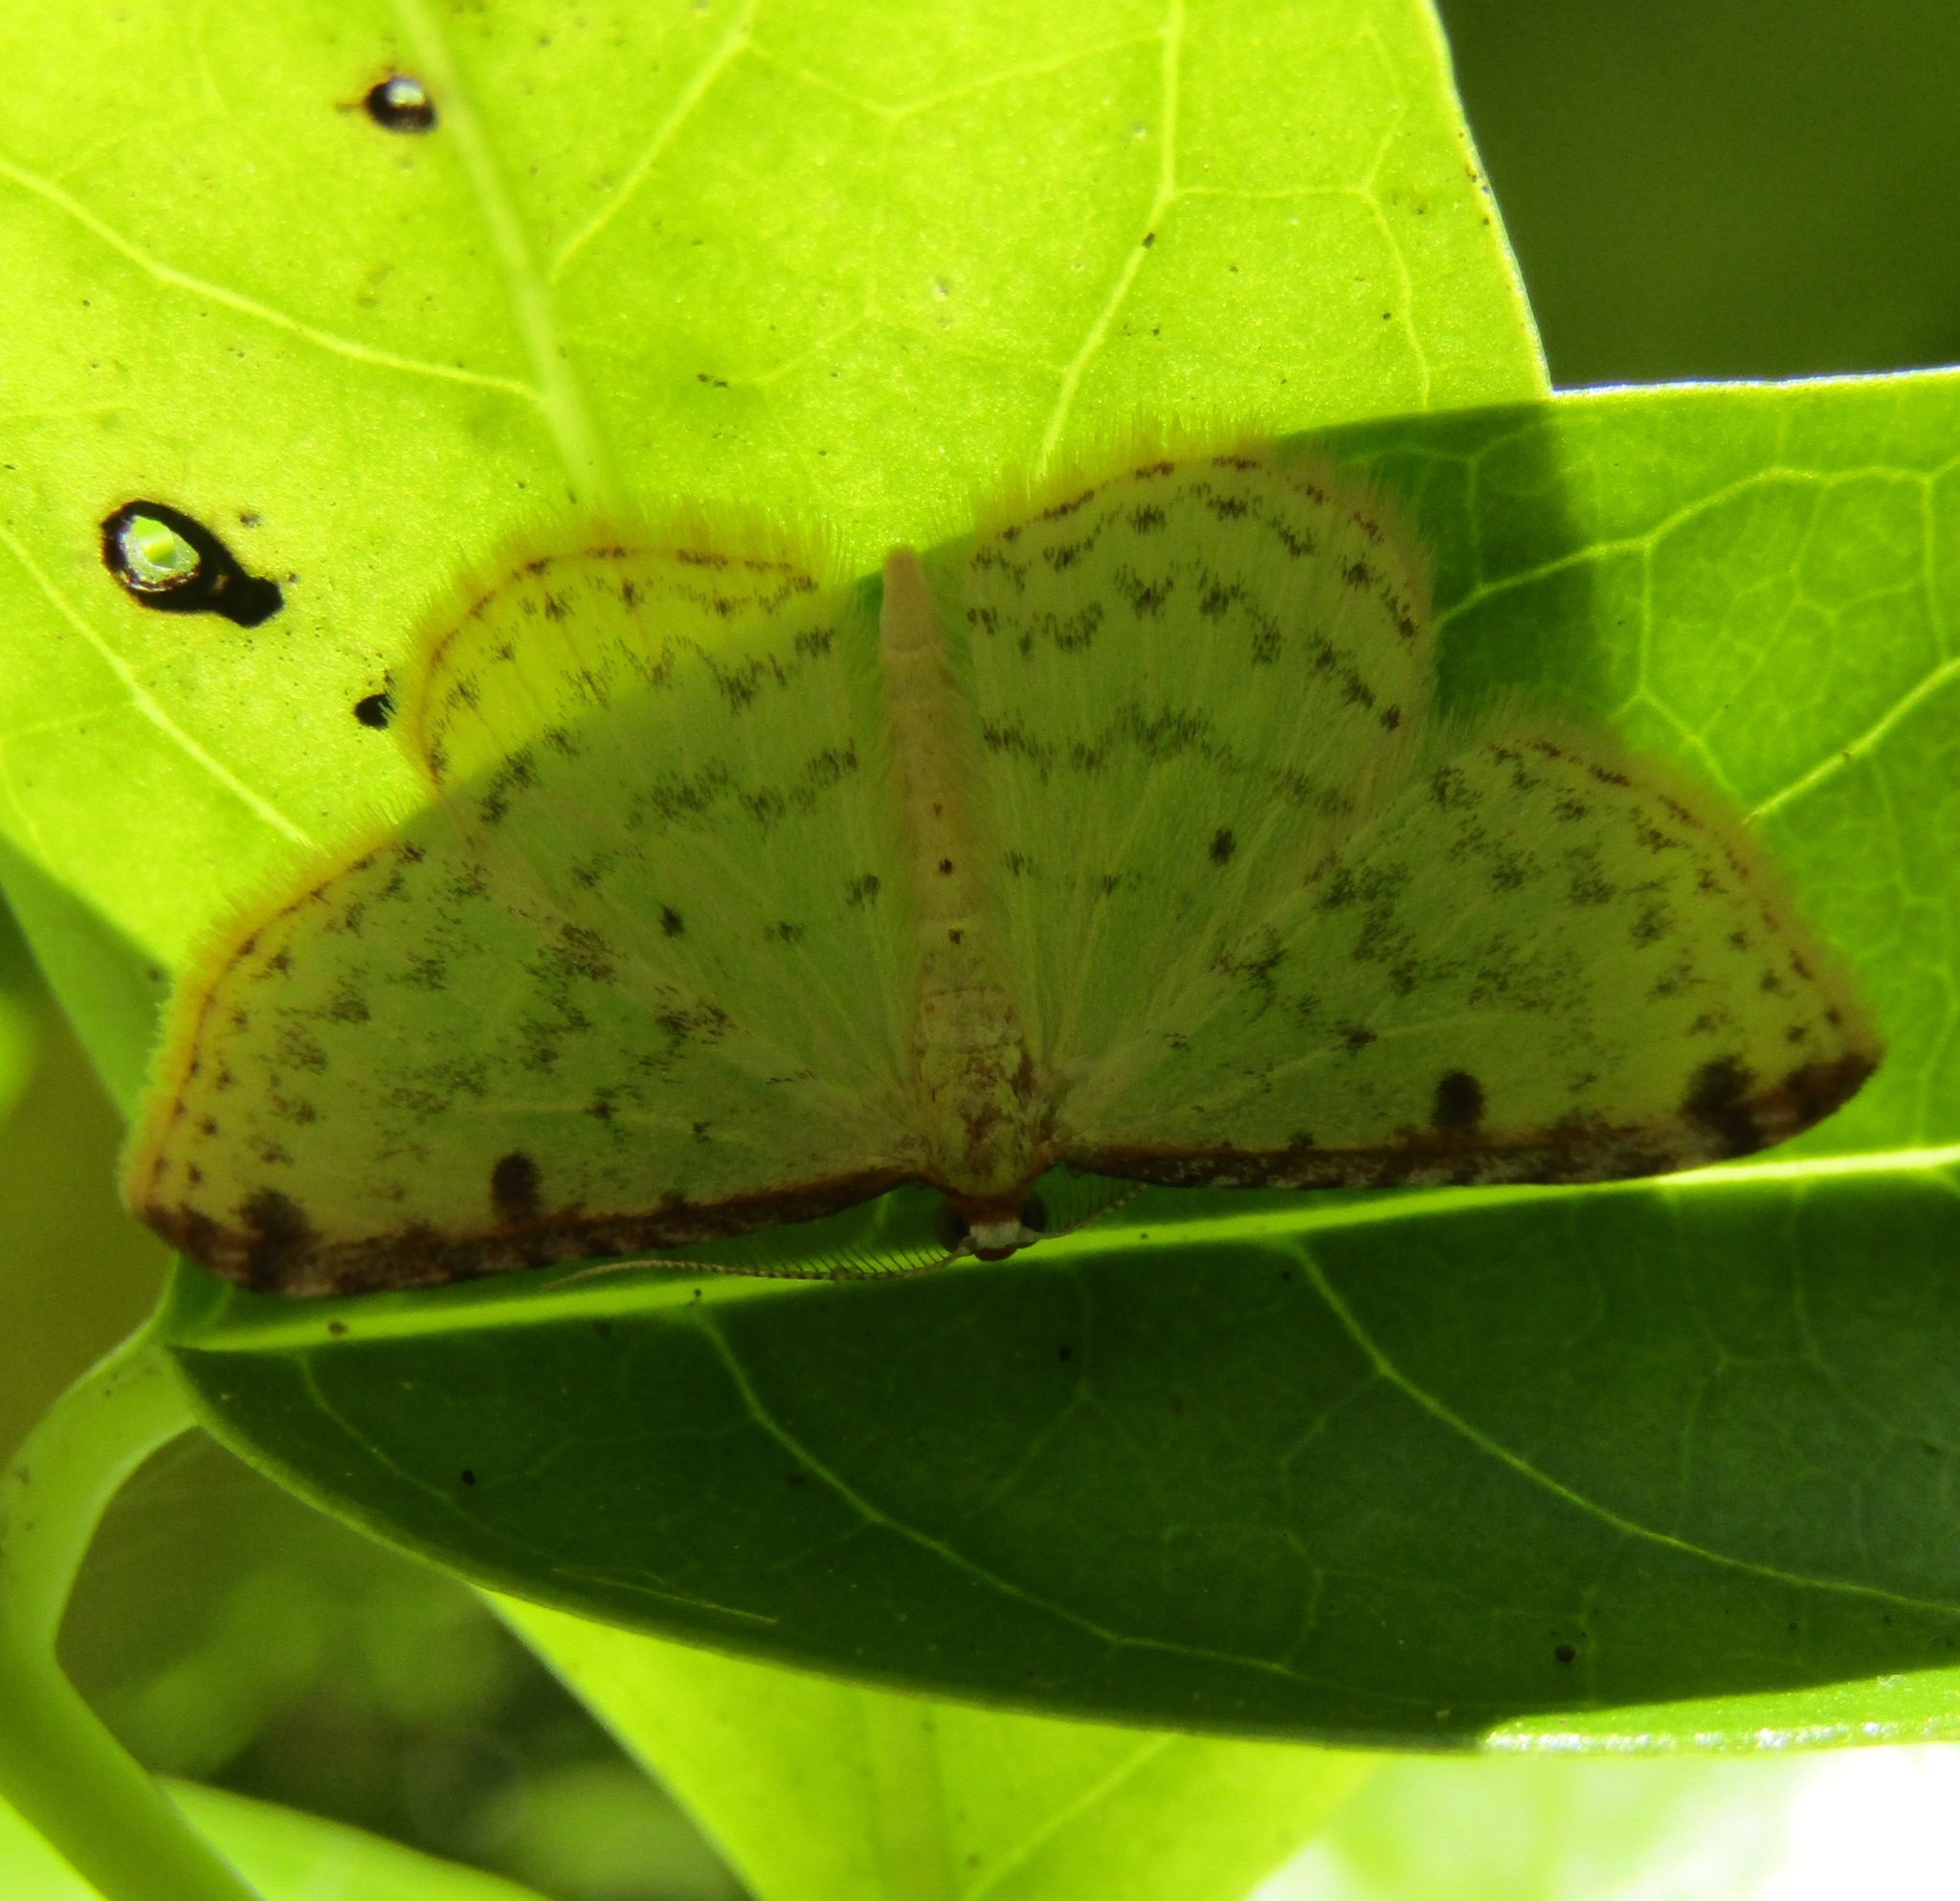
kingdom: Animalia
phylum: Arthropoda
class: Insecta
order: Lepidoptera
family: Geometridae
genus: Epiphryne
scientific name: Epiphryne undosata
